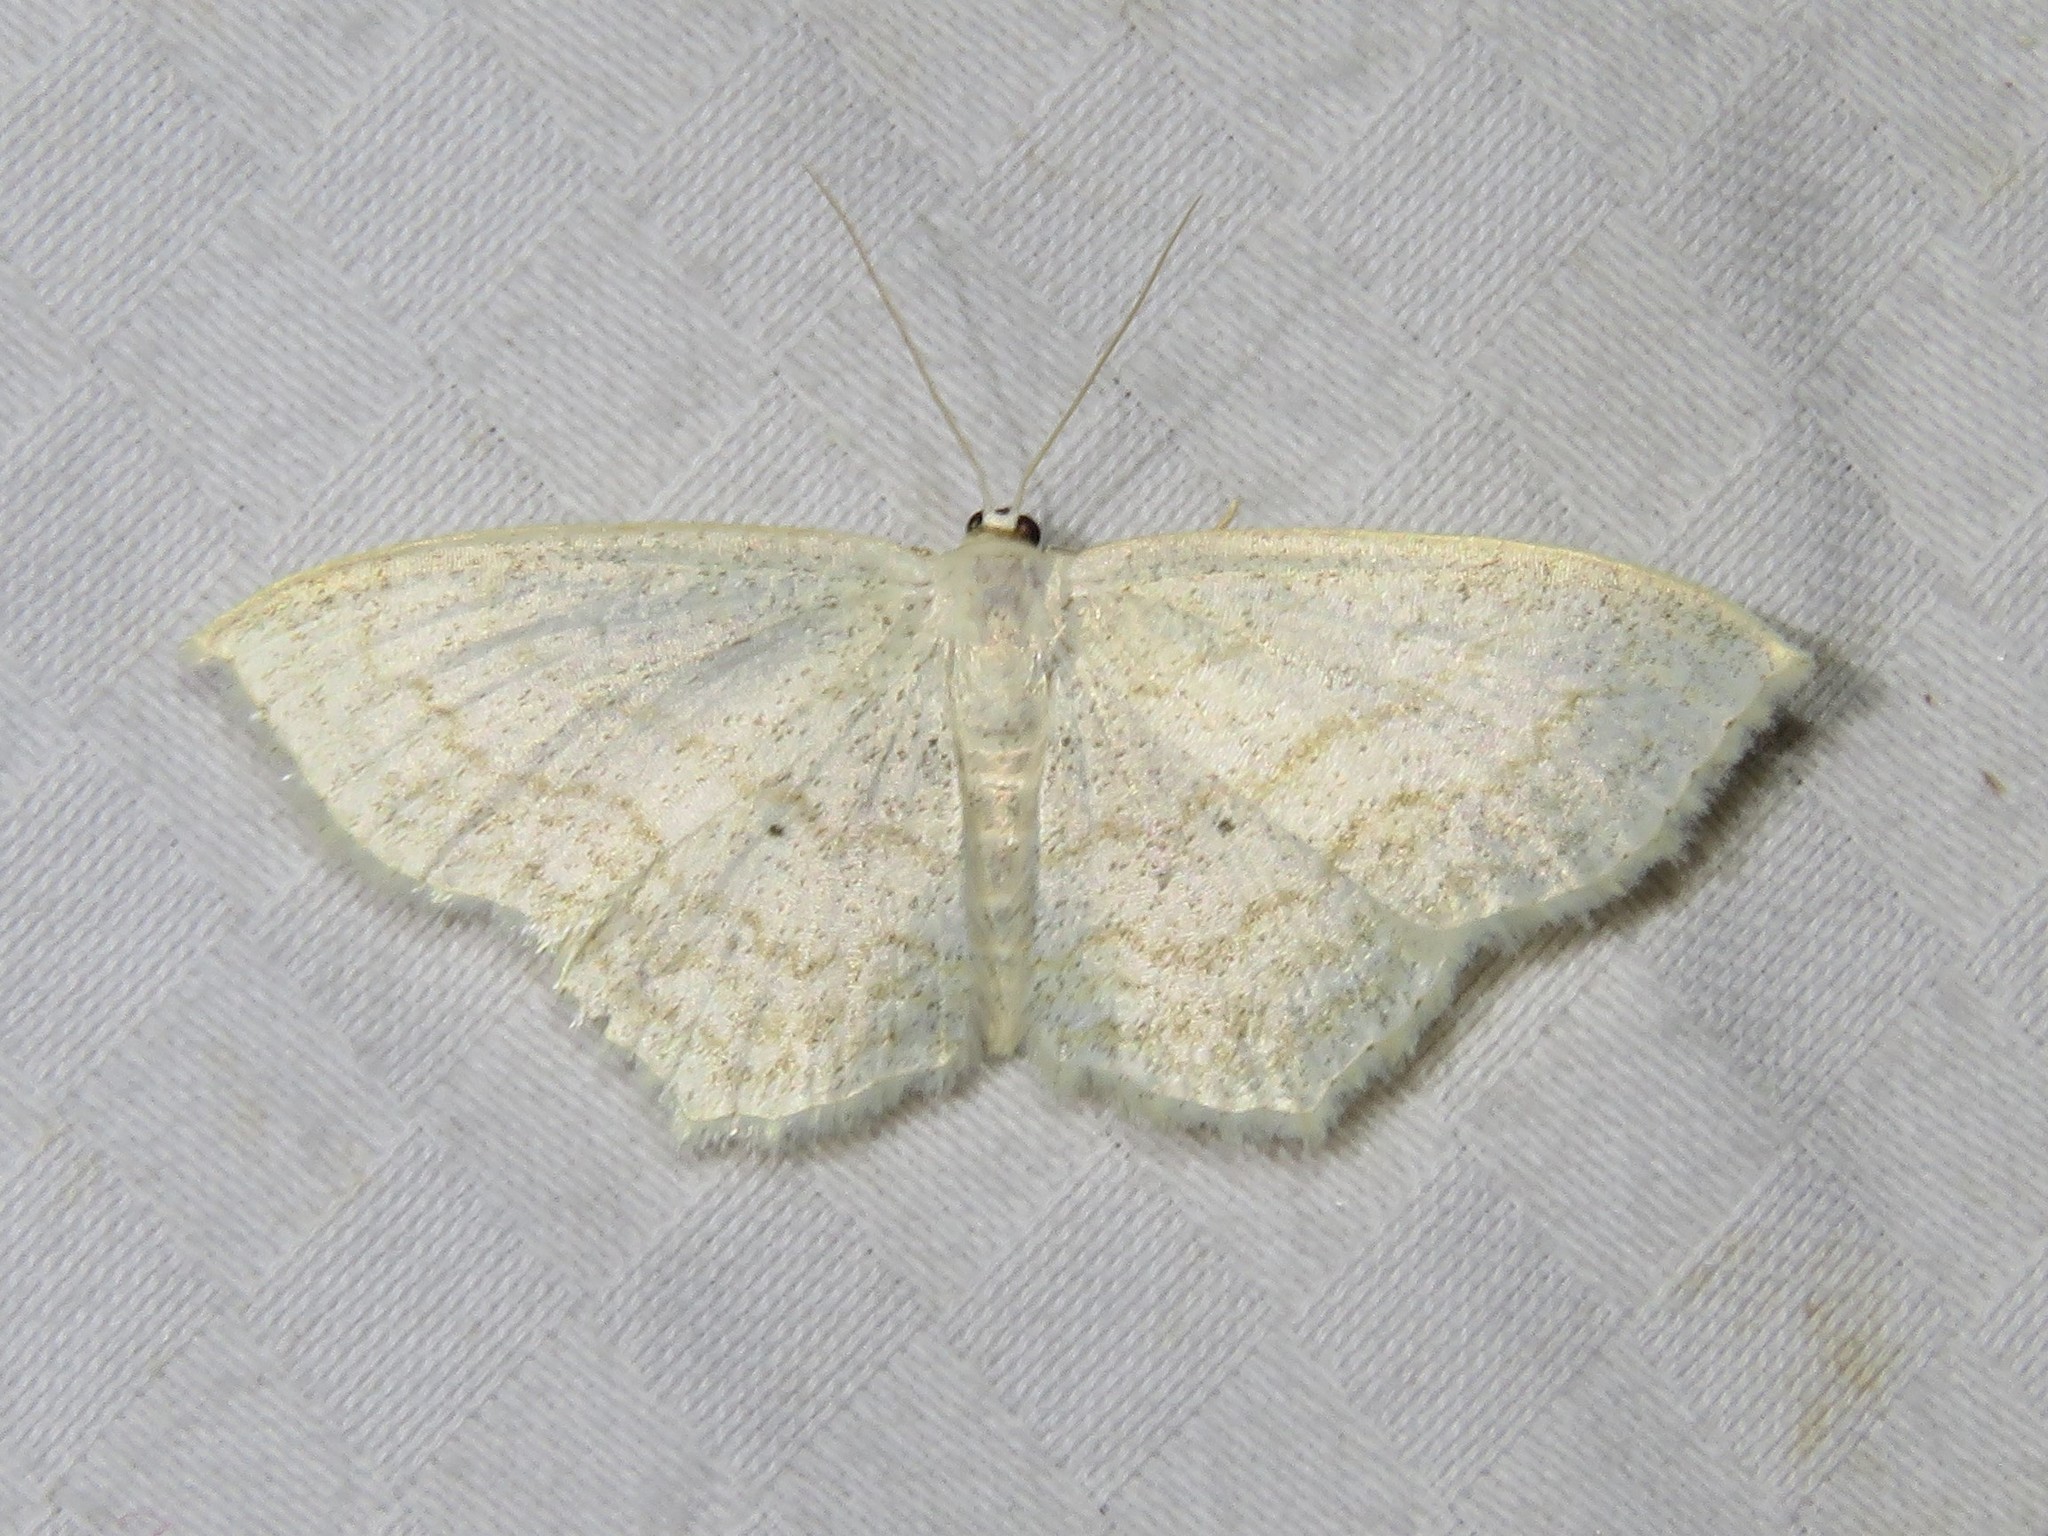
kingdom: Animalia
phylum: Arthropoda
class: Insecta
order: Lepidoptera
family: Geometridae
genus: Scopula
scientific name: Scopula limboundata
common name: Large lace border
